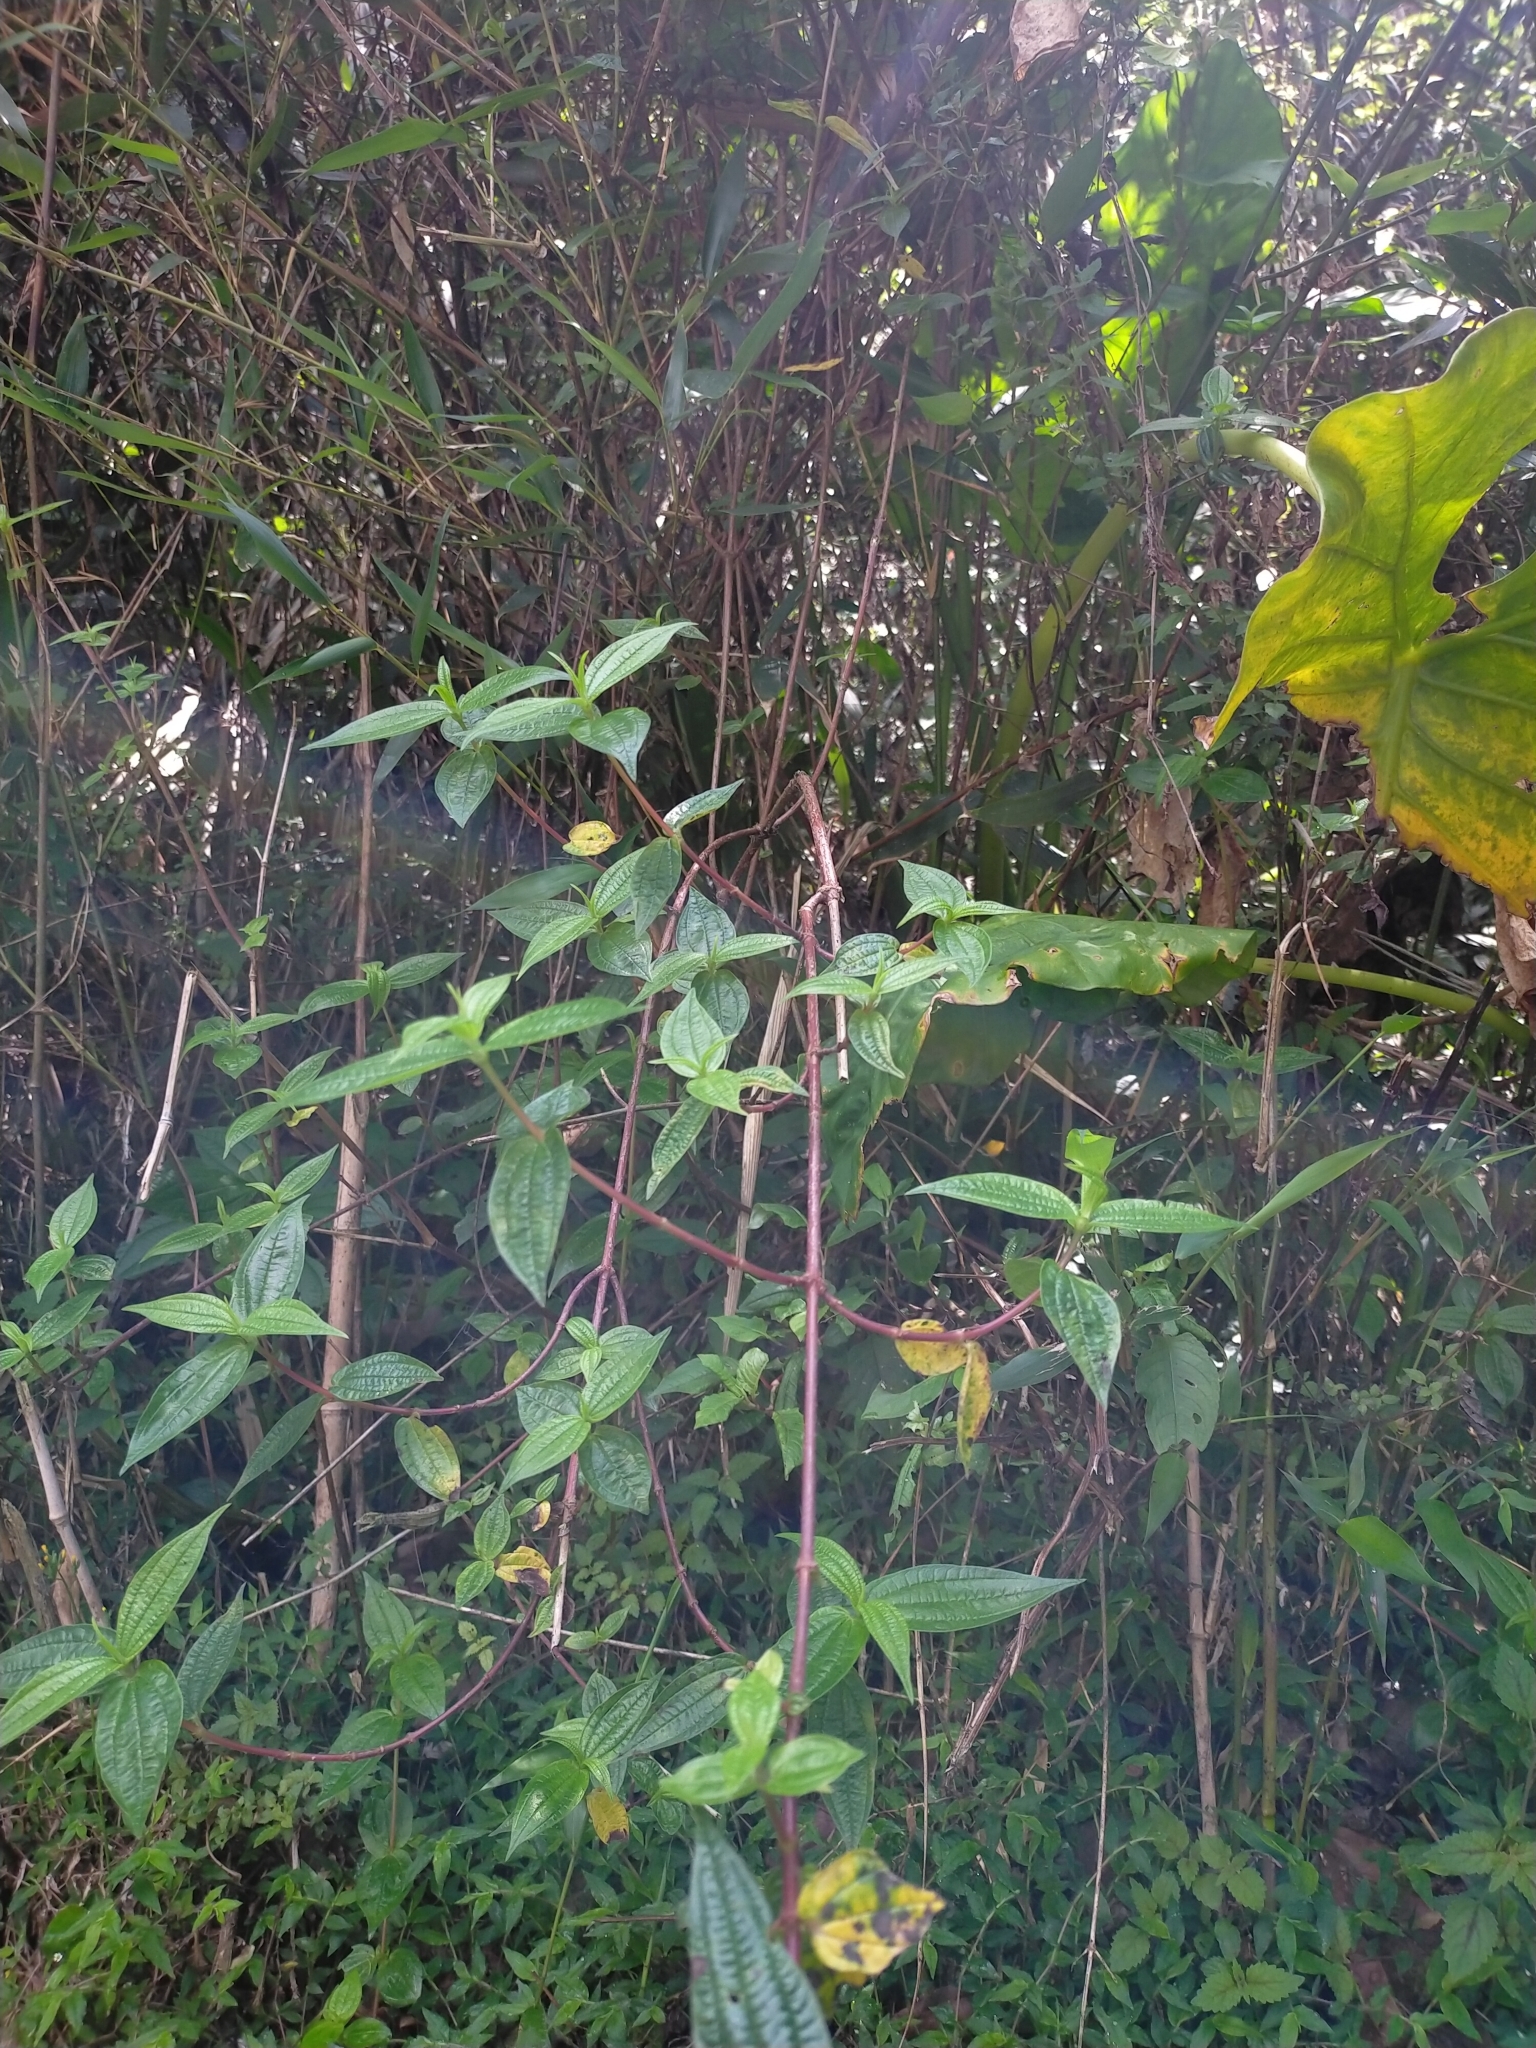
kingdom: Plantae
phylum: Tracheophyta
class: Magnoliopsida
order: Rosales
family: Urticaceae
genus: Gonostegia
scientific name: Gonostegia triandra
